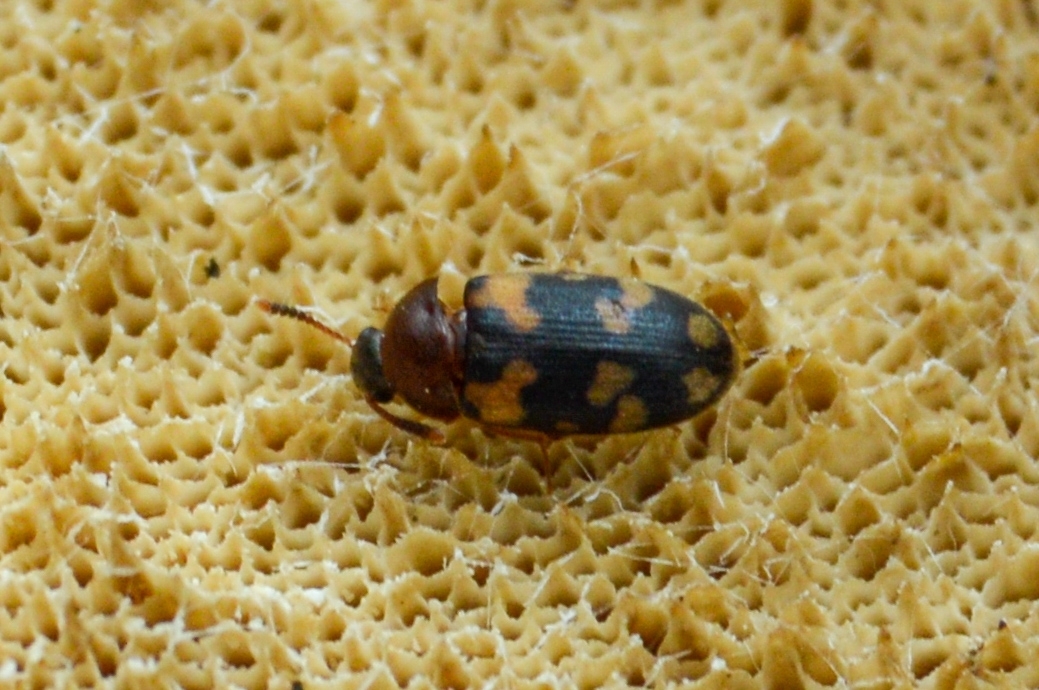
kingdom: Animalia
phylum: Arthropoda
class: Insecta
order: Coleoptera
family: Mycetophagidae
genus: Mycetophagus
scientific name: Mycetophagus piceus
